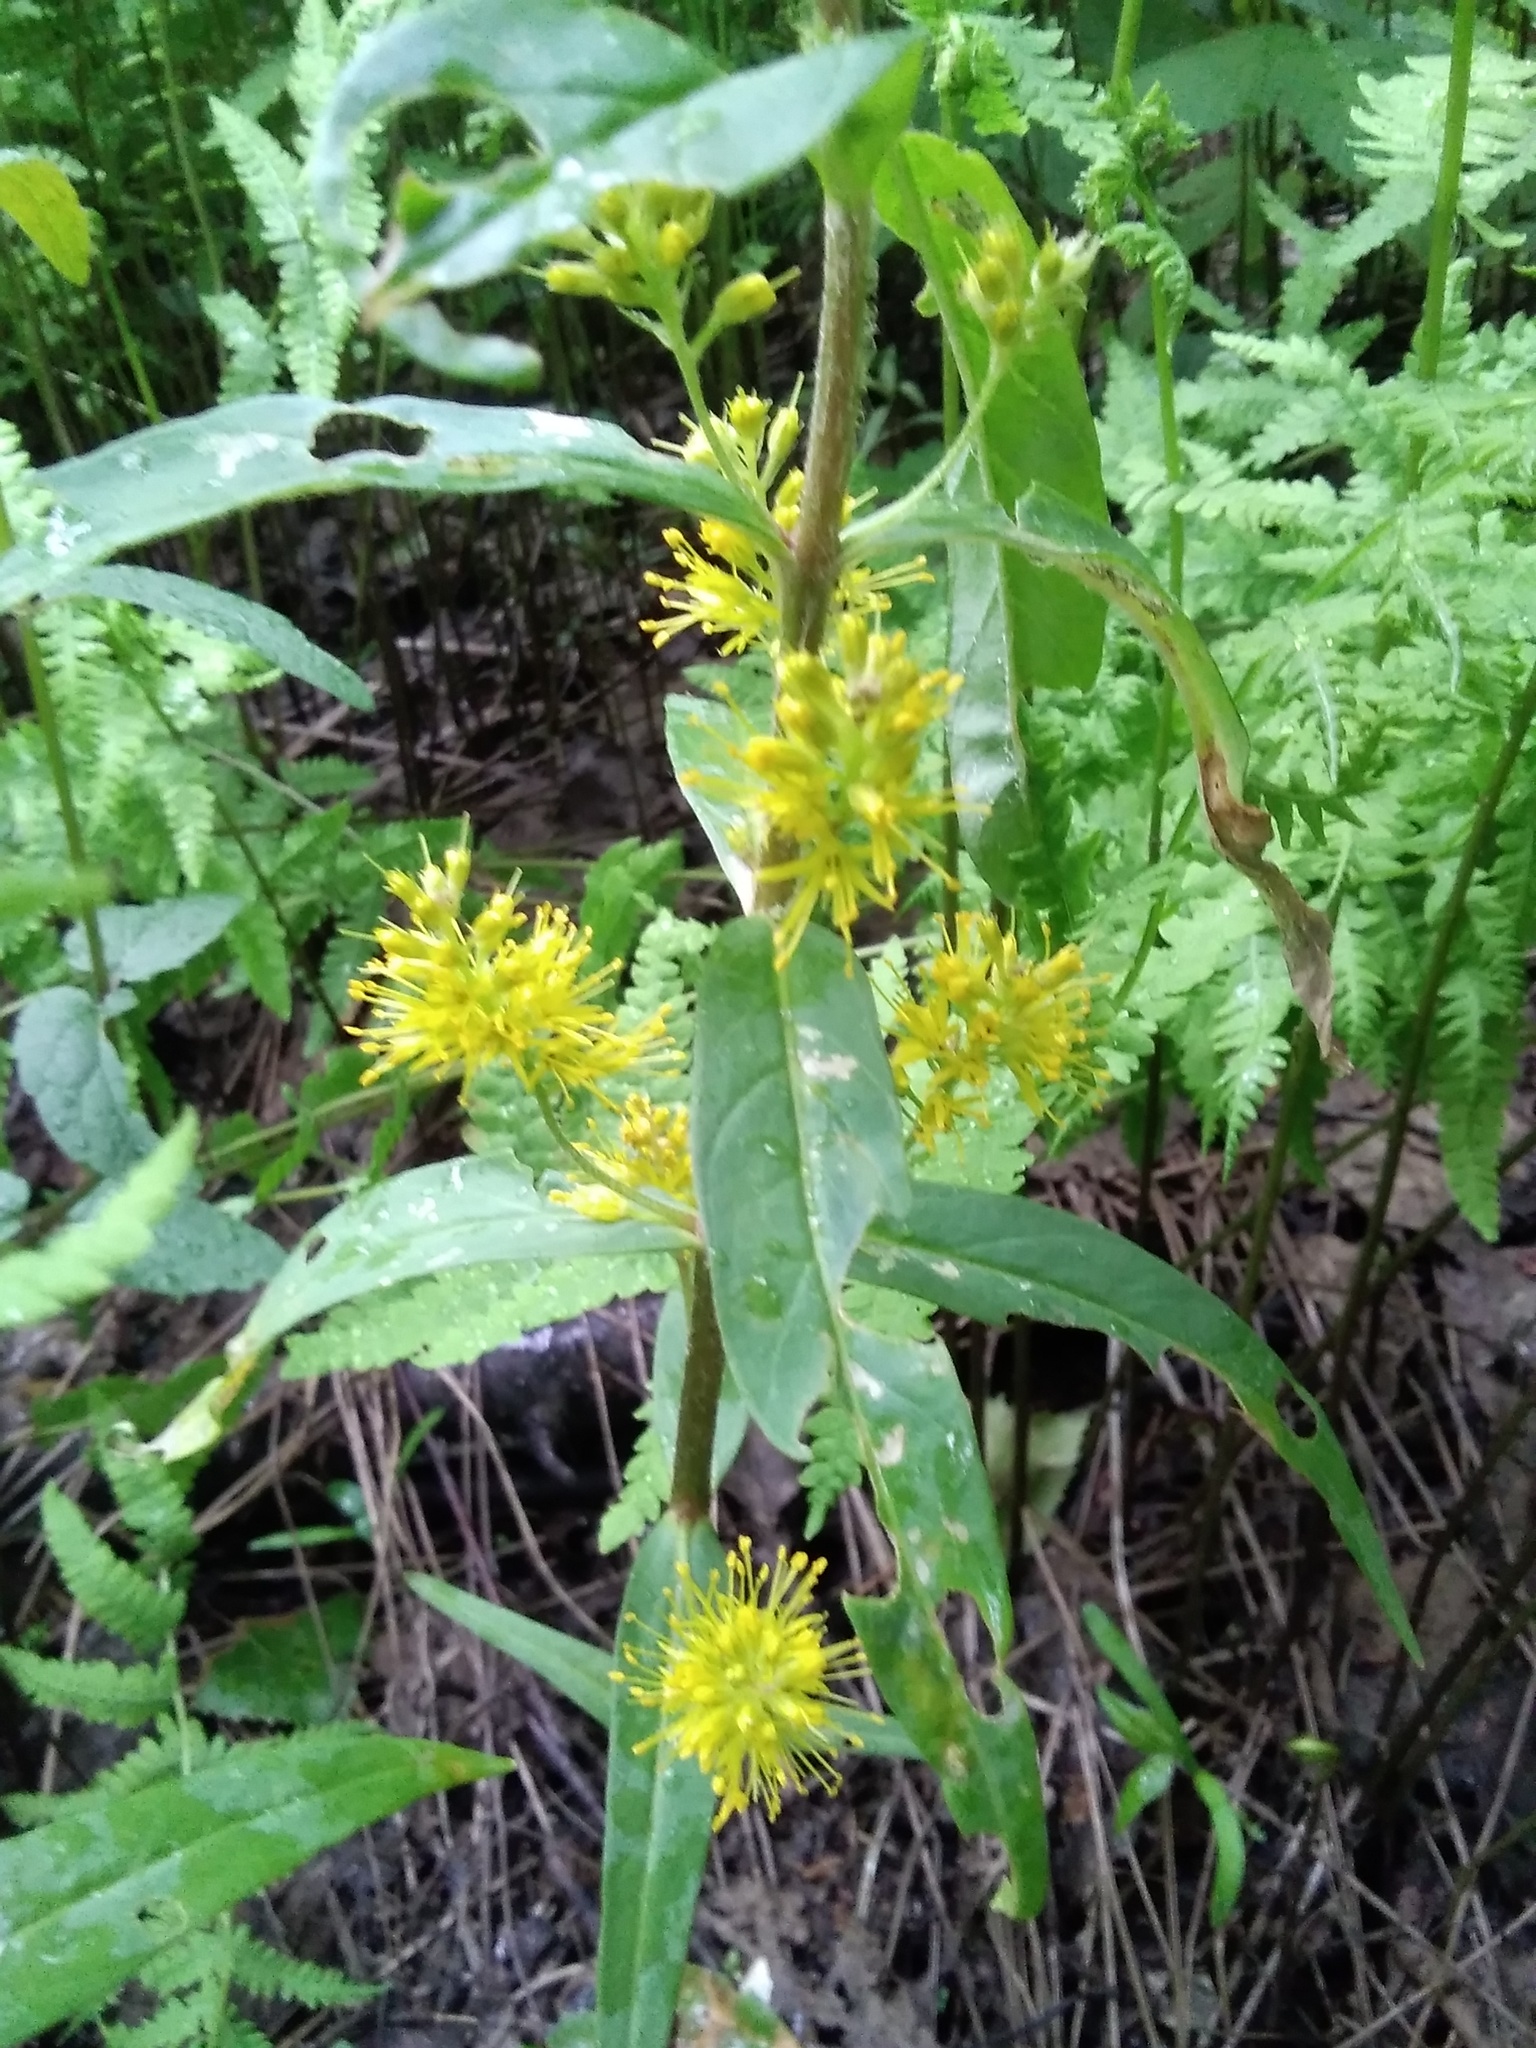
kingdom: Plantae
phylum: Tracheophyta
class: Magnoliopsida
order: Ericales
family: Primulaceae
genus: Lysimachia
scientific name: Lysimachia thyrsiflora
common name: Tufted loosestrife
